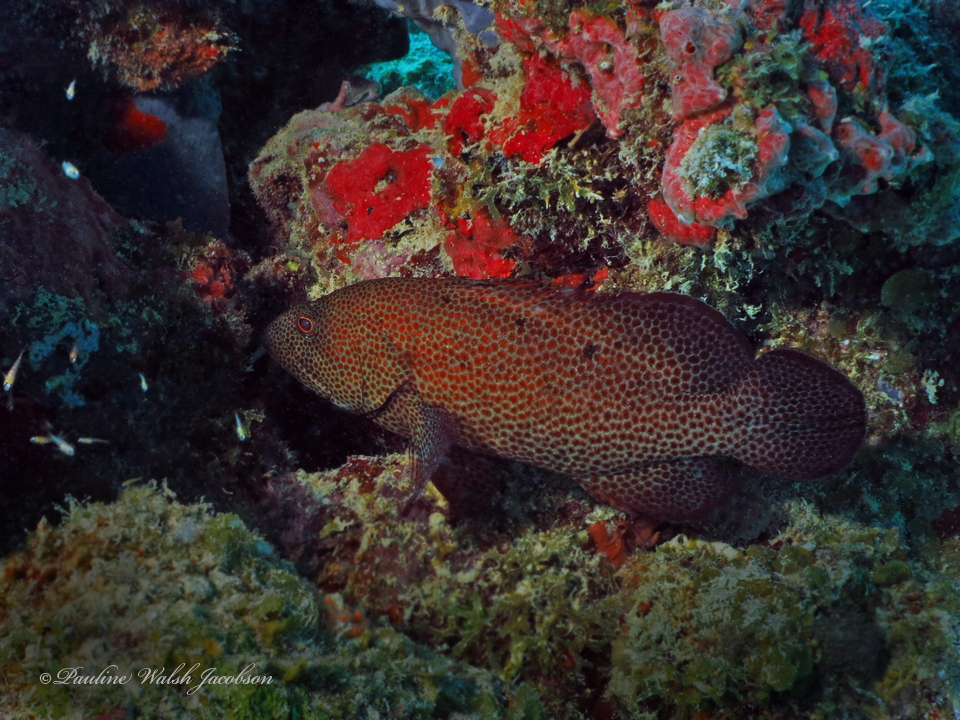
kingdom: Animalia
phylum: Chordata
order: Perciformes
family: Serranidae
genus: Cephalopholis
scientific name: Cephalopholis cruentata
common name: Graysby
